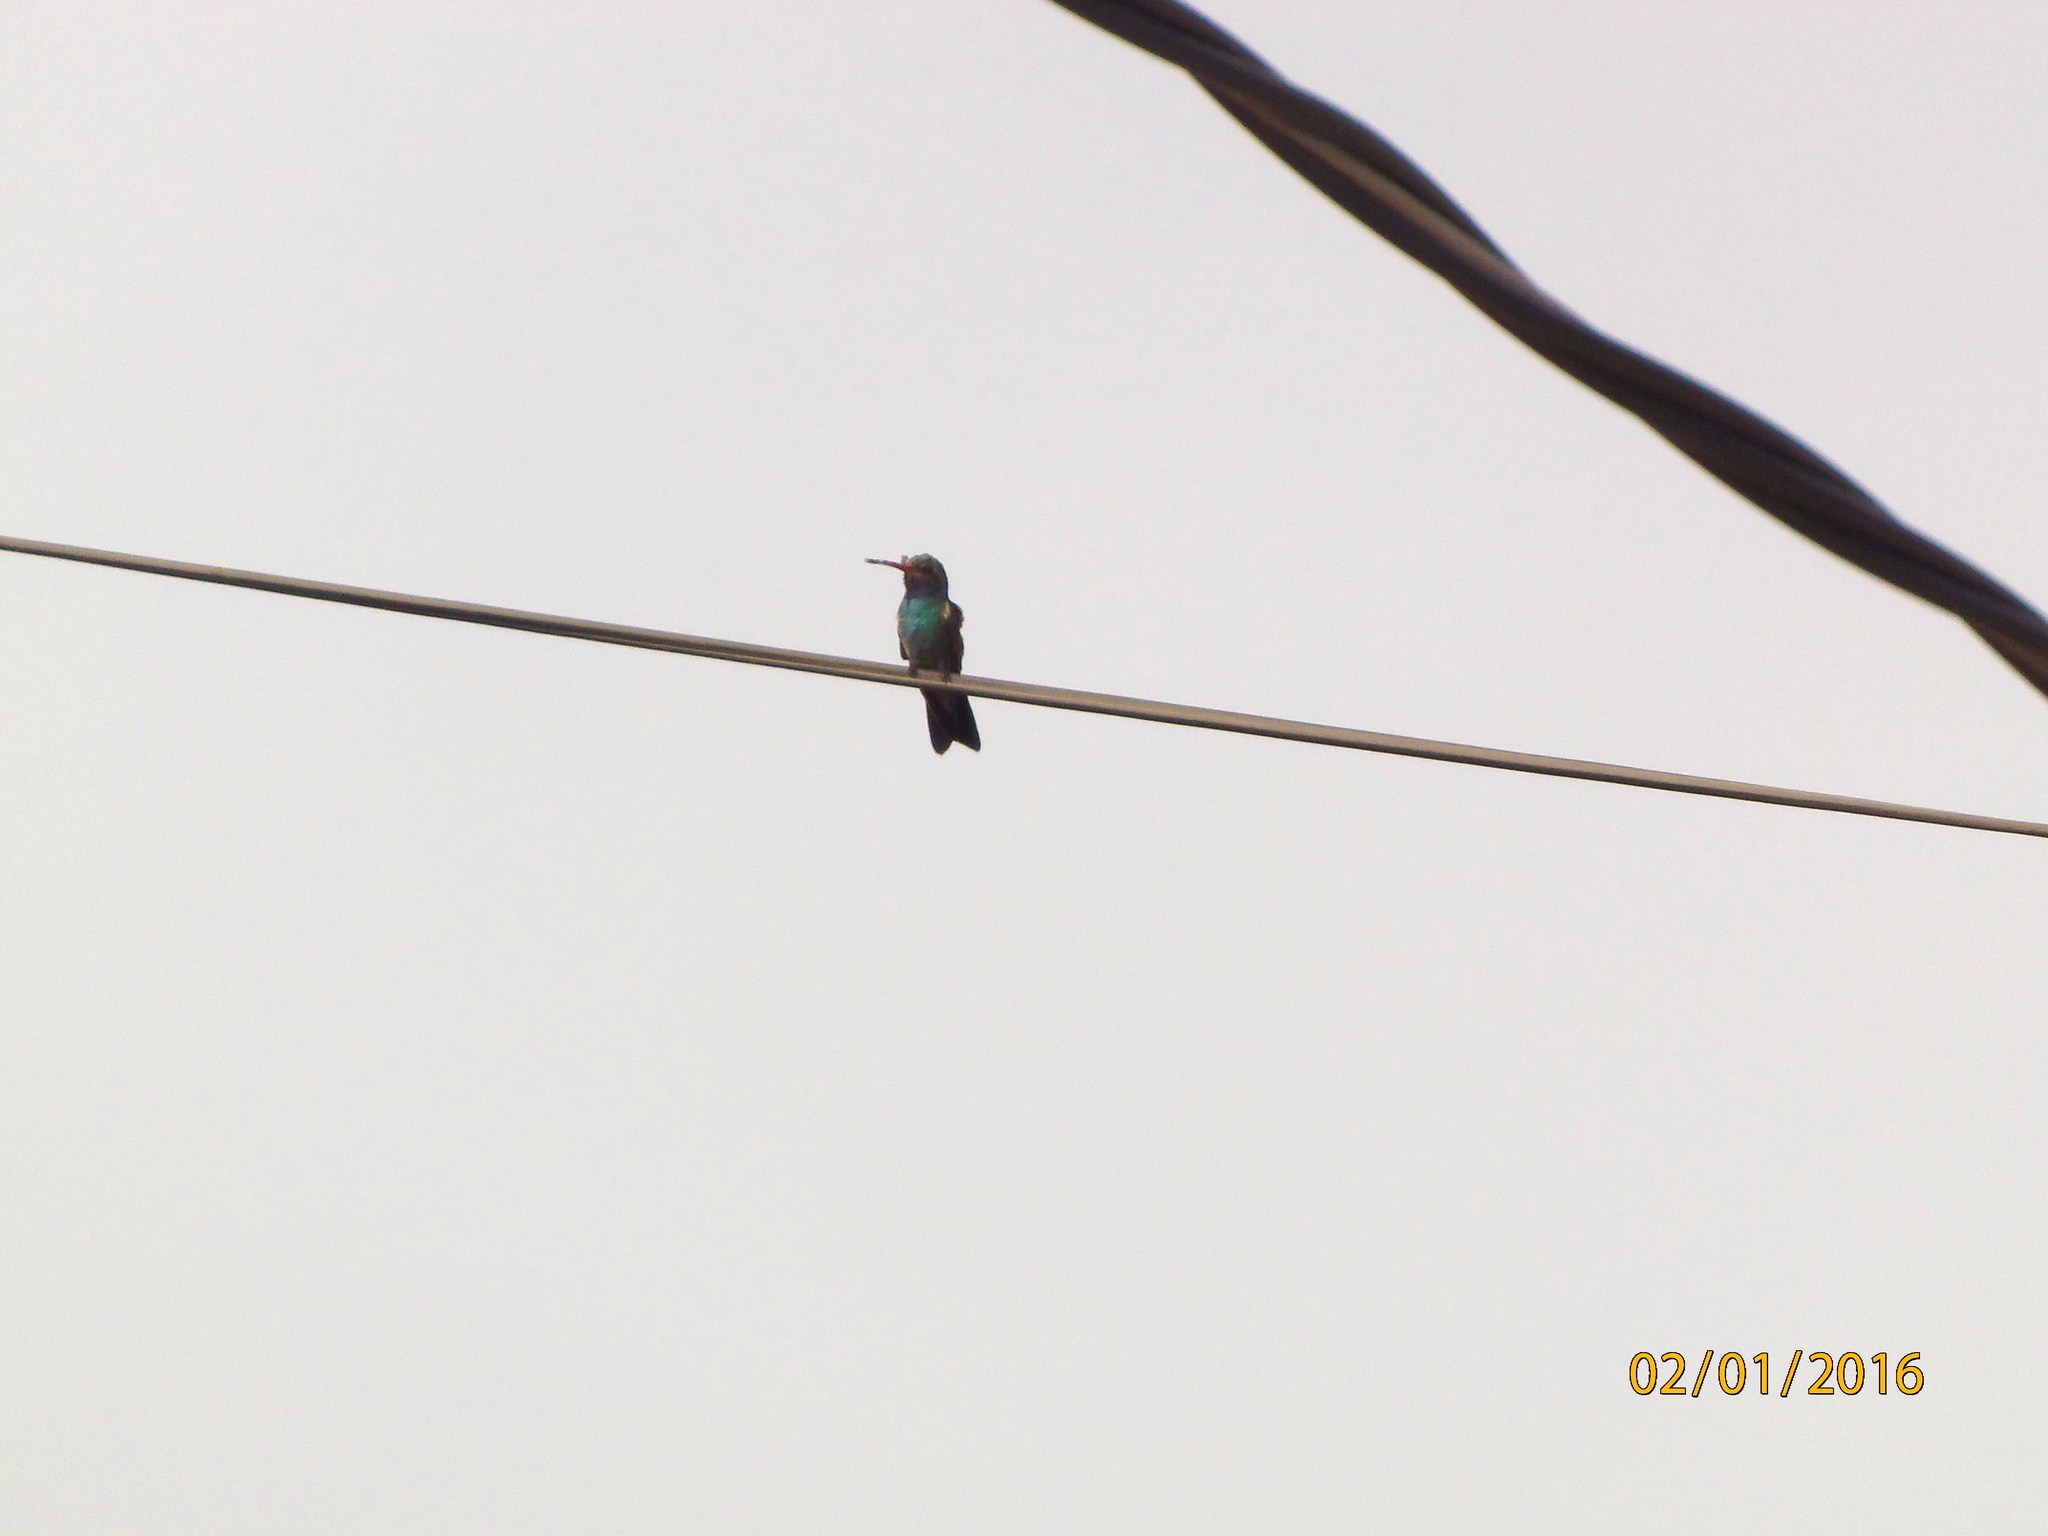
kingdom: Animalia
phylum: Chordata
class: Aves
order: Apodiformes
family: Trochilidae
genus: Cynanthus
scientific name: Cynanthus latirostris
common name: Broad-billed hummingbird
